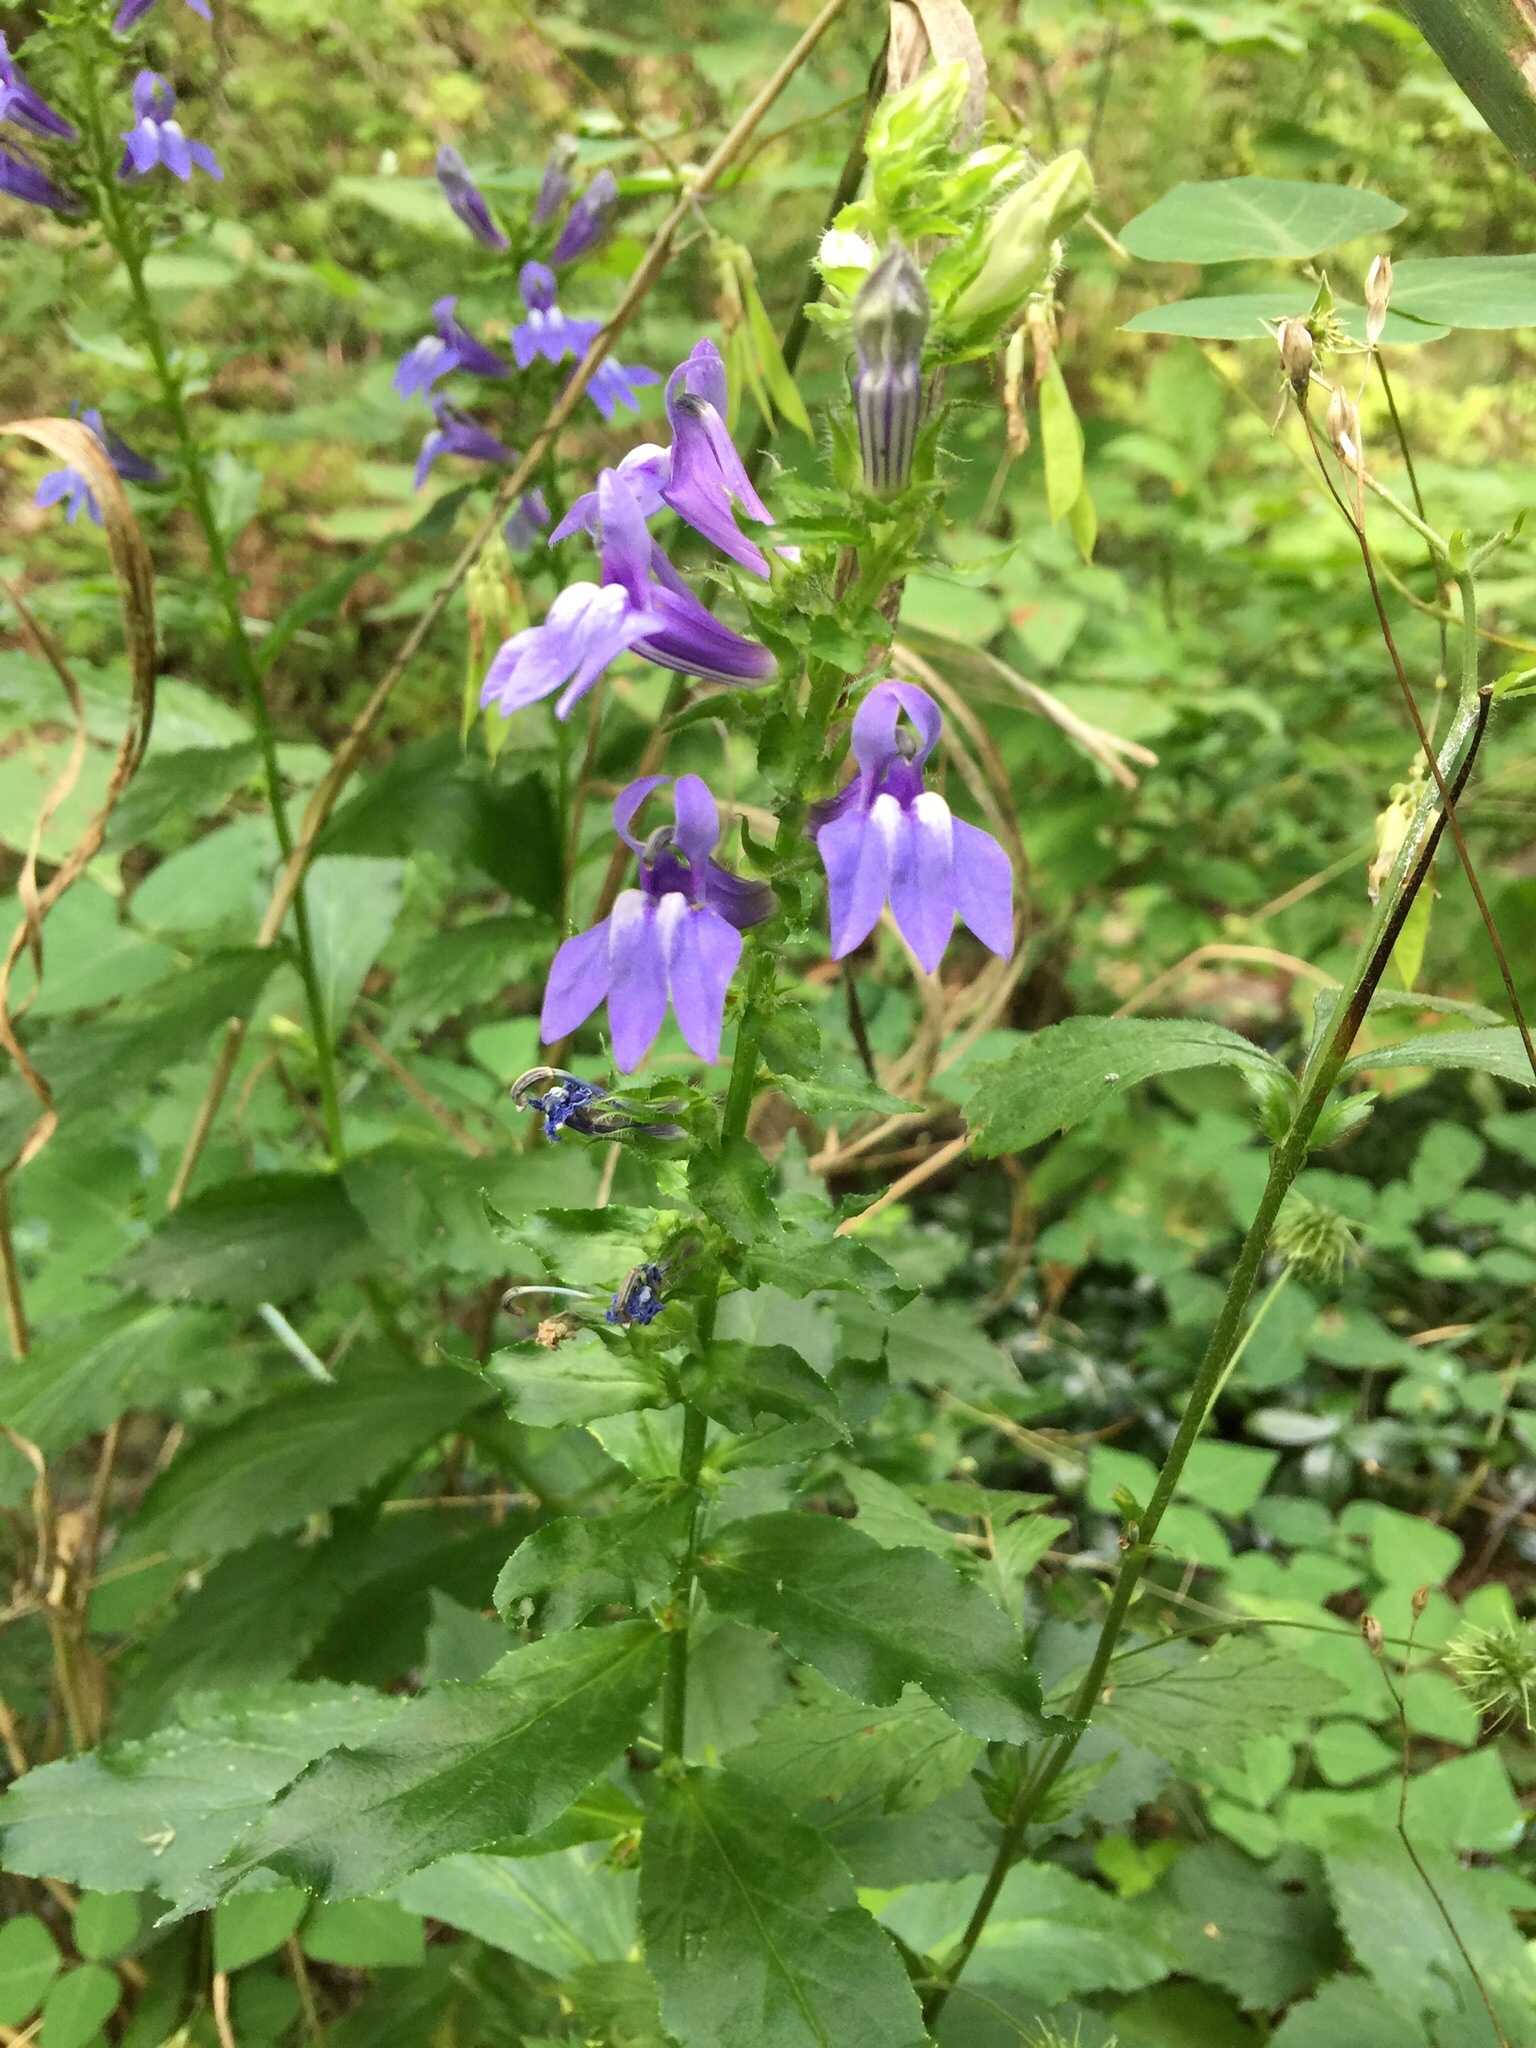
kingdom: Plantae
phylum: Tracheophyta
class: Magnoliopsida
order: Asterales
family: Campanulaceae
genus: Lobelia
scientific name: Lobelia siphilitica
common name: Great lobelia
